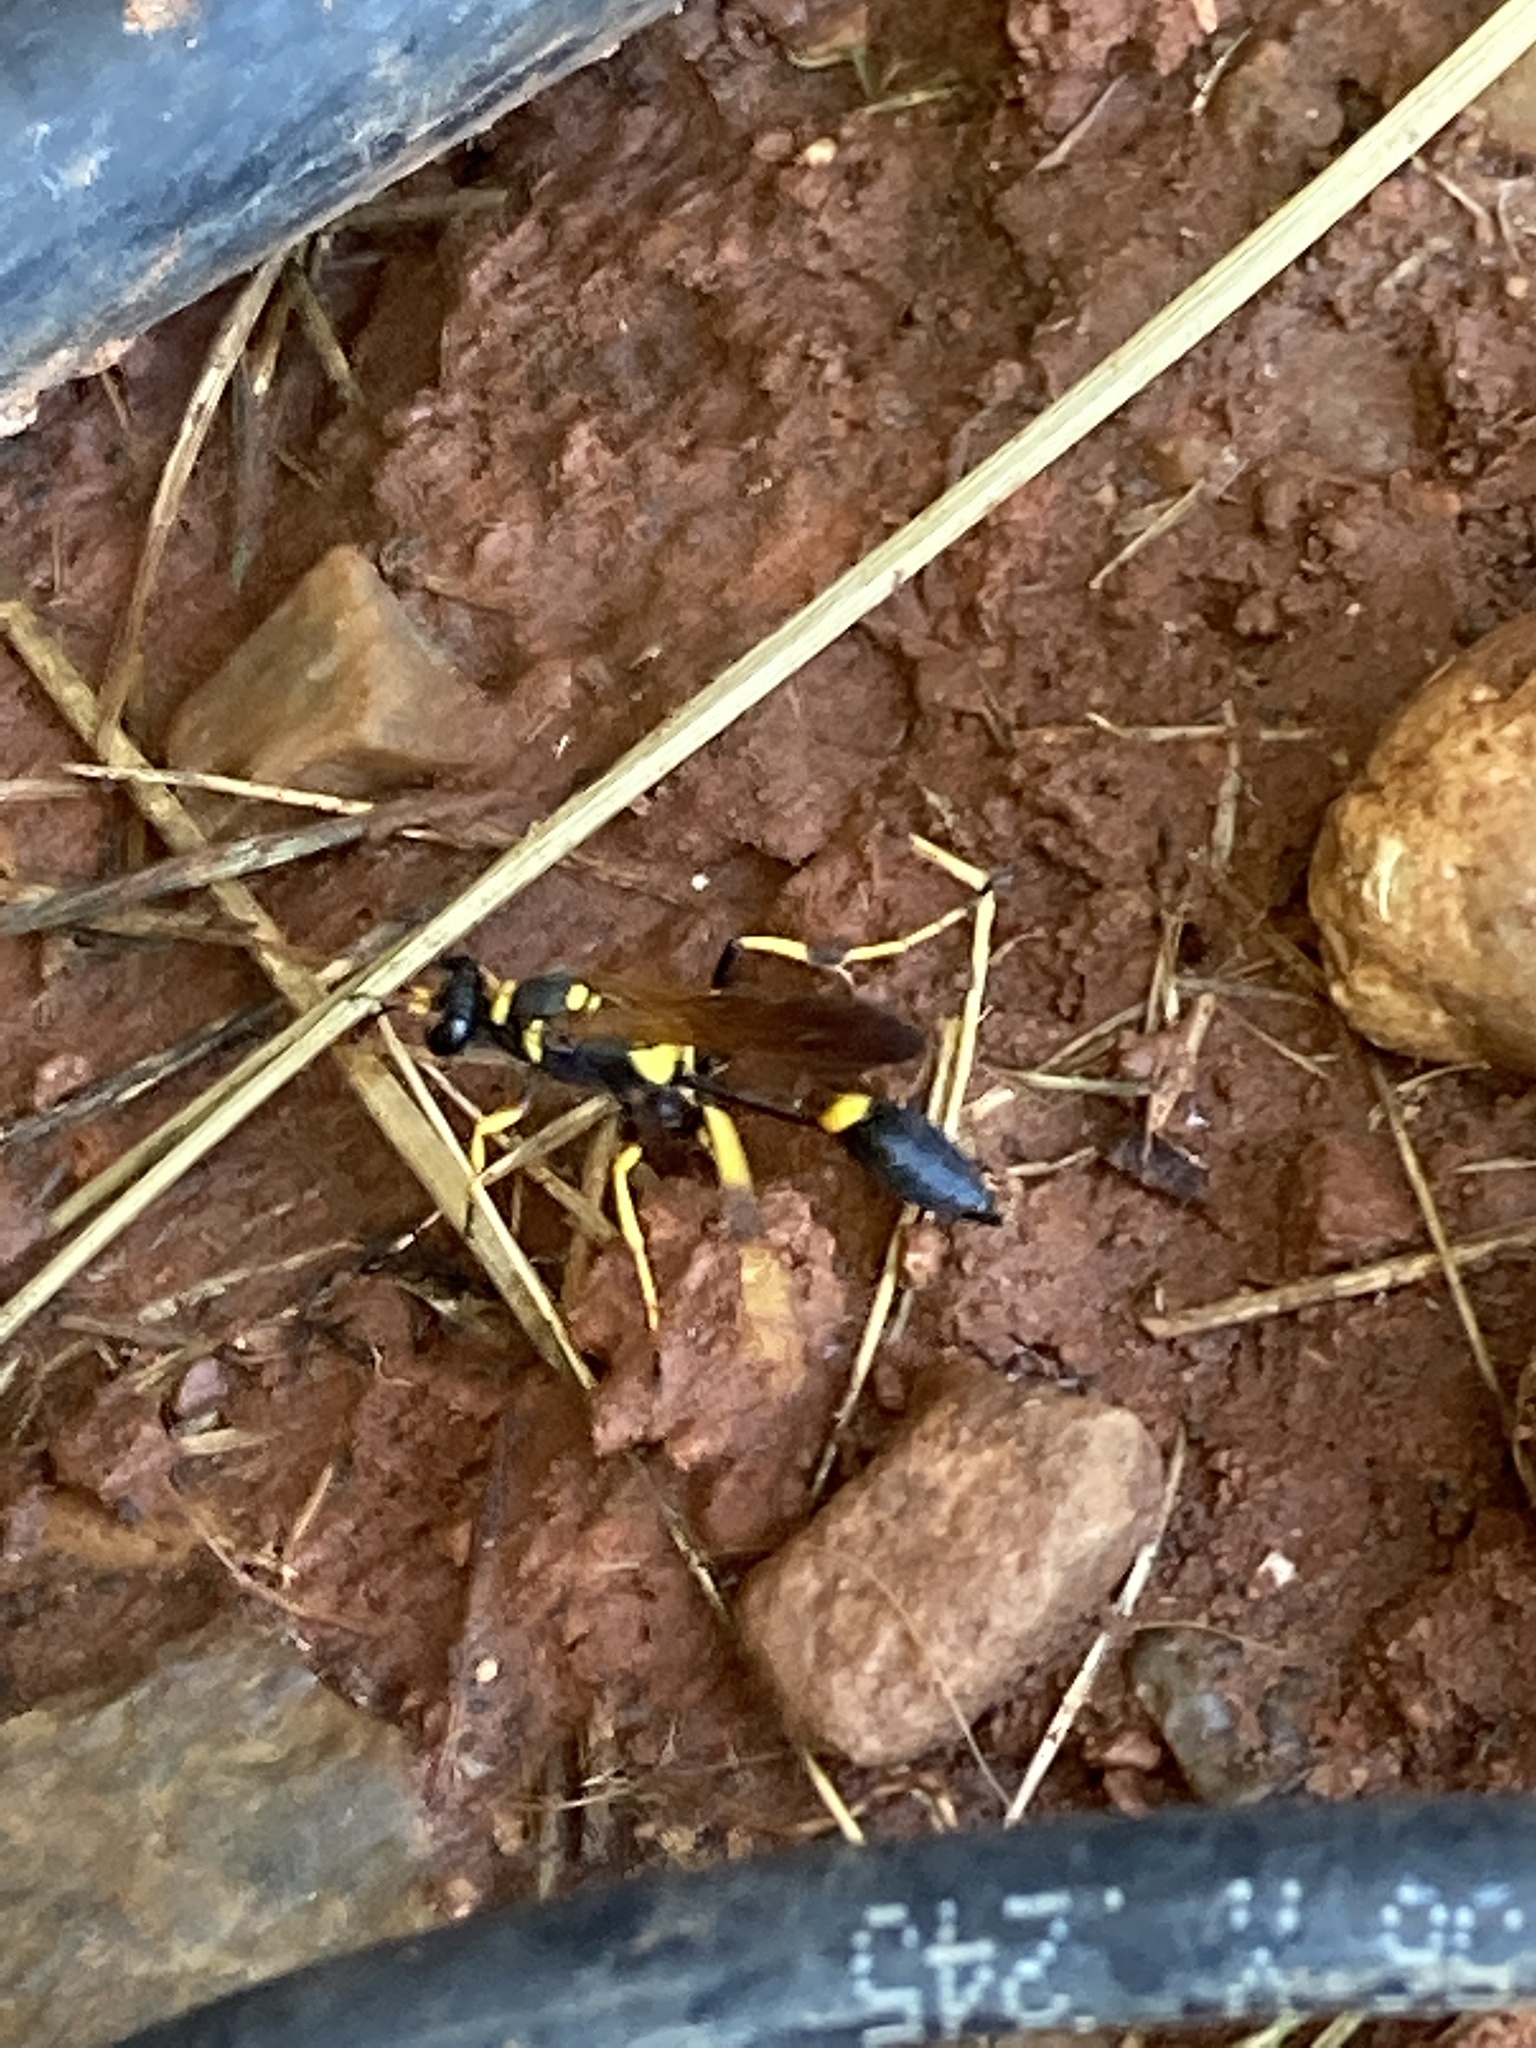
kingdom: Animalia
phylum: Arthropoda
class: Insecta
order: Hymenoptera
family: Sphecidae
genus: Sceliphron
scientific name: Sceliphron caementarium
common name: Mud dauber
